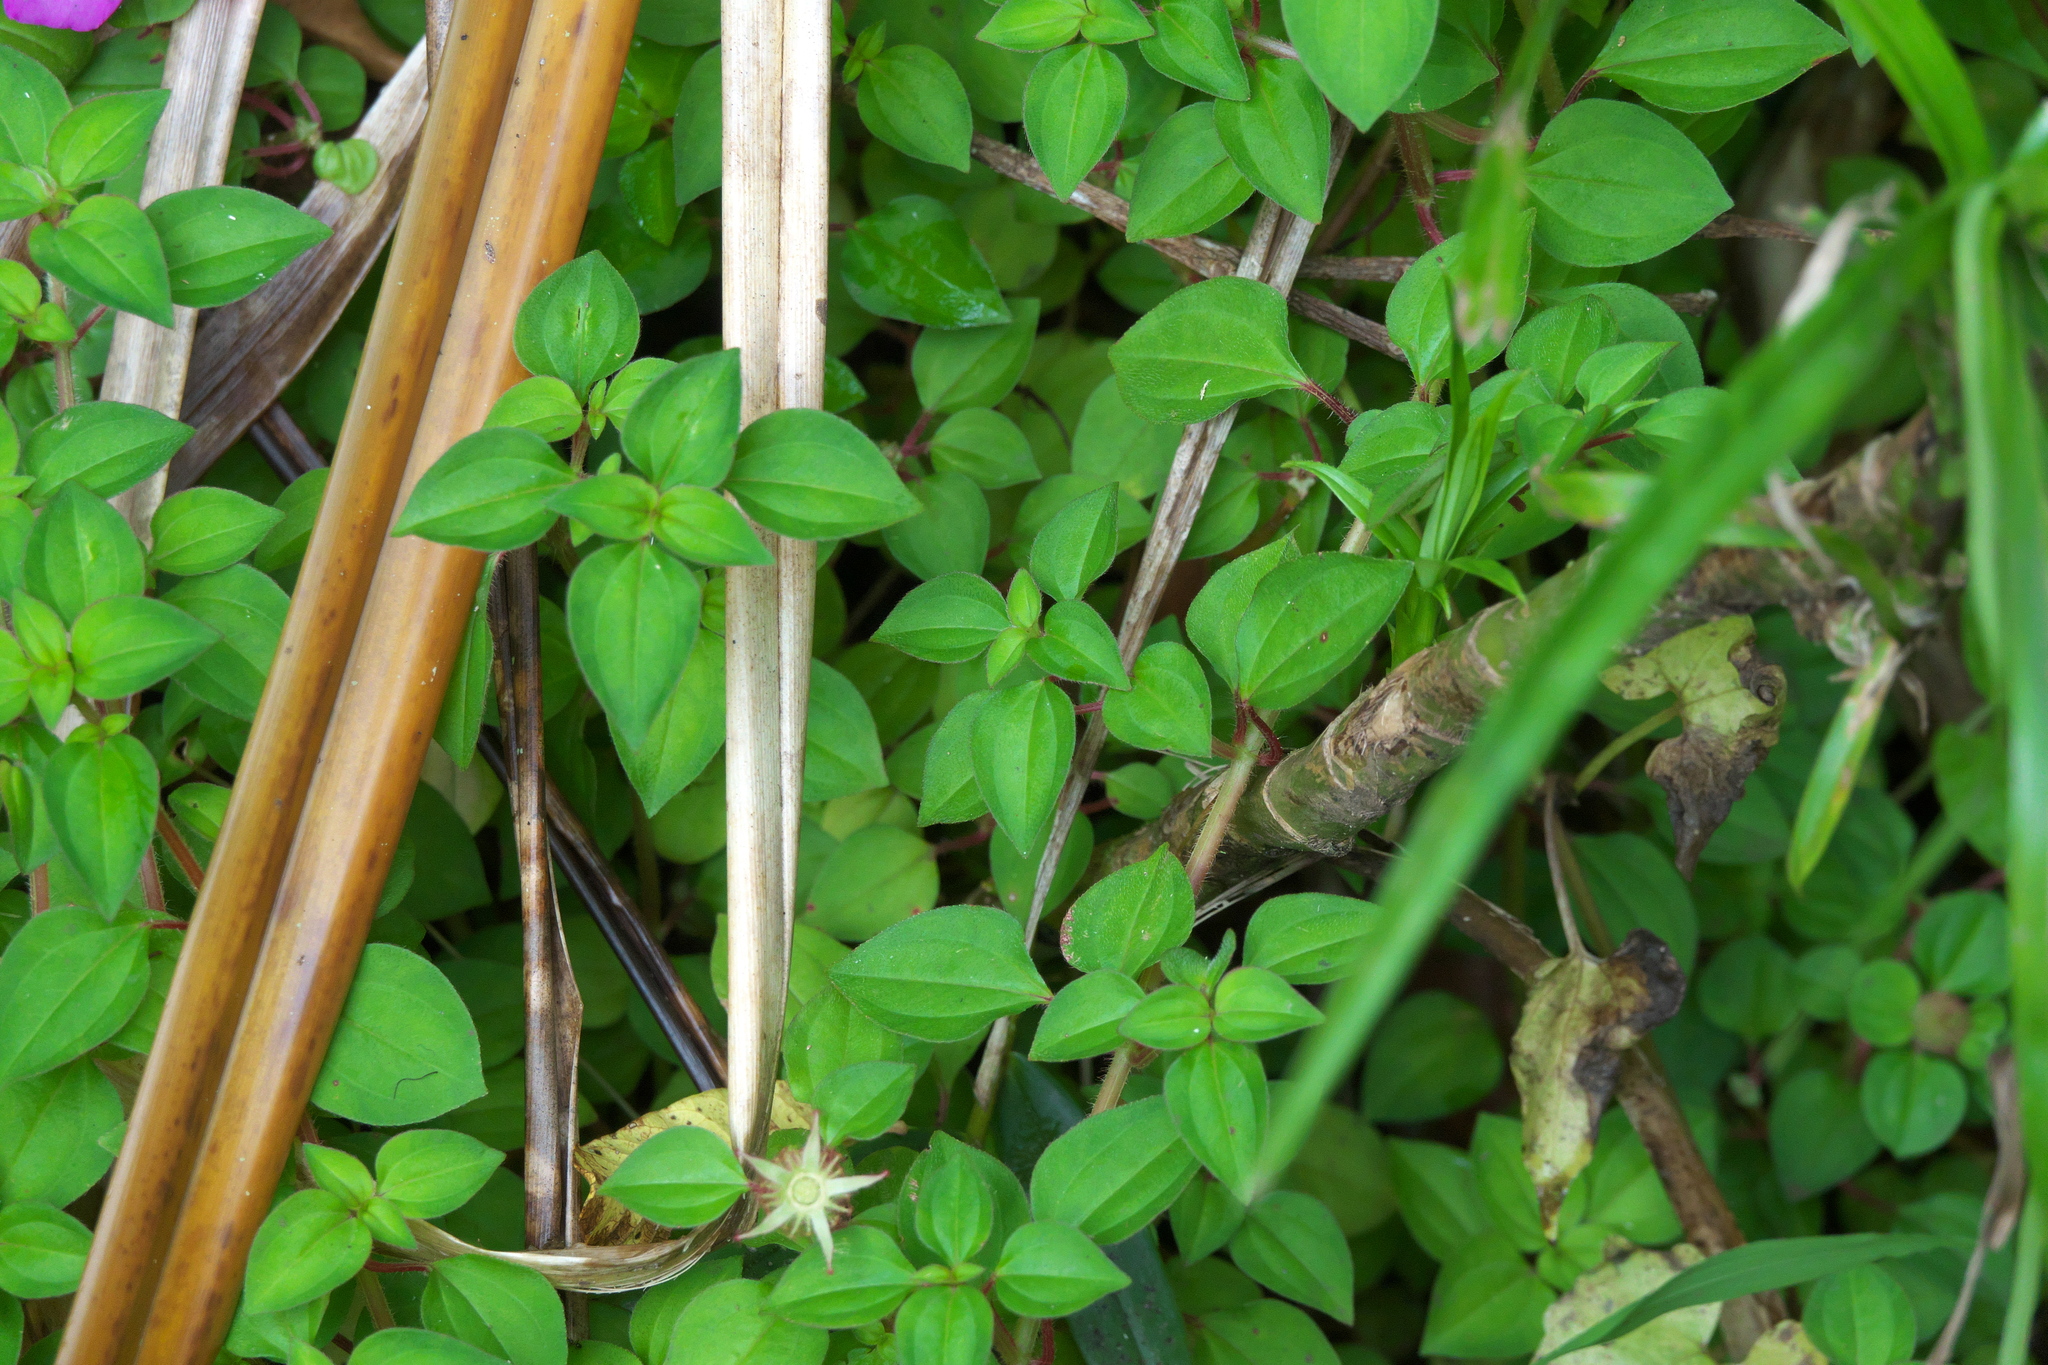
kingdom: Plantae
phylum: Tracheophyta
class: Magnoliopsida
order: Myrtales
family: Melastomataceae
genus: Heterotis
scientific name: Heterotis rotundifolia
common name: Pinklady
